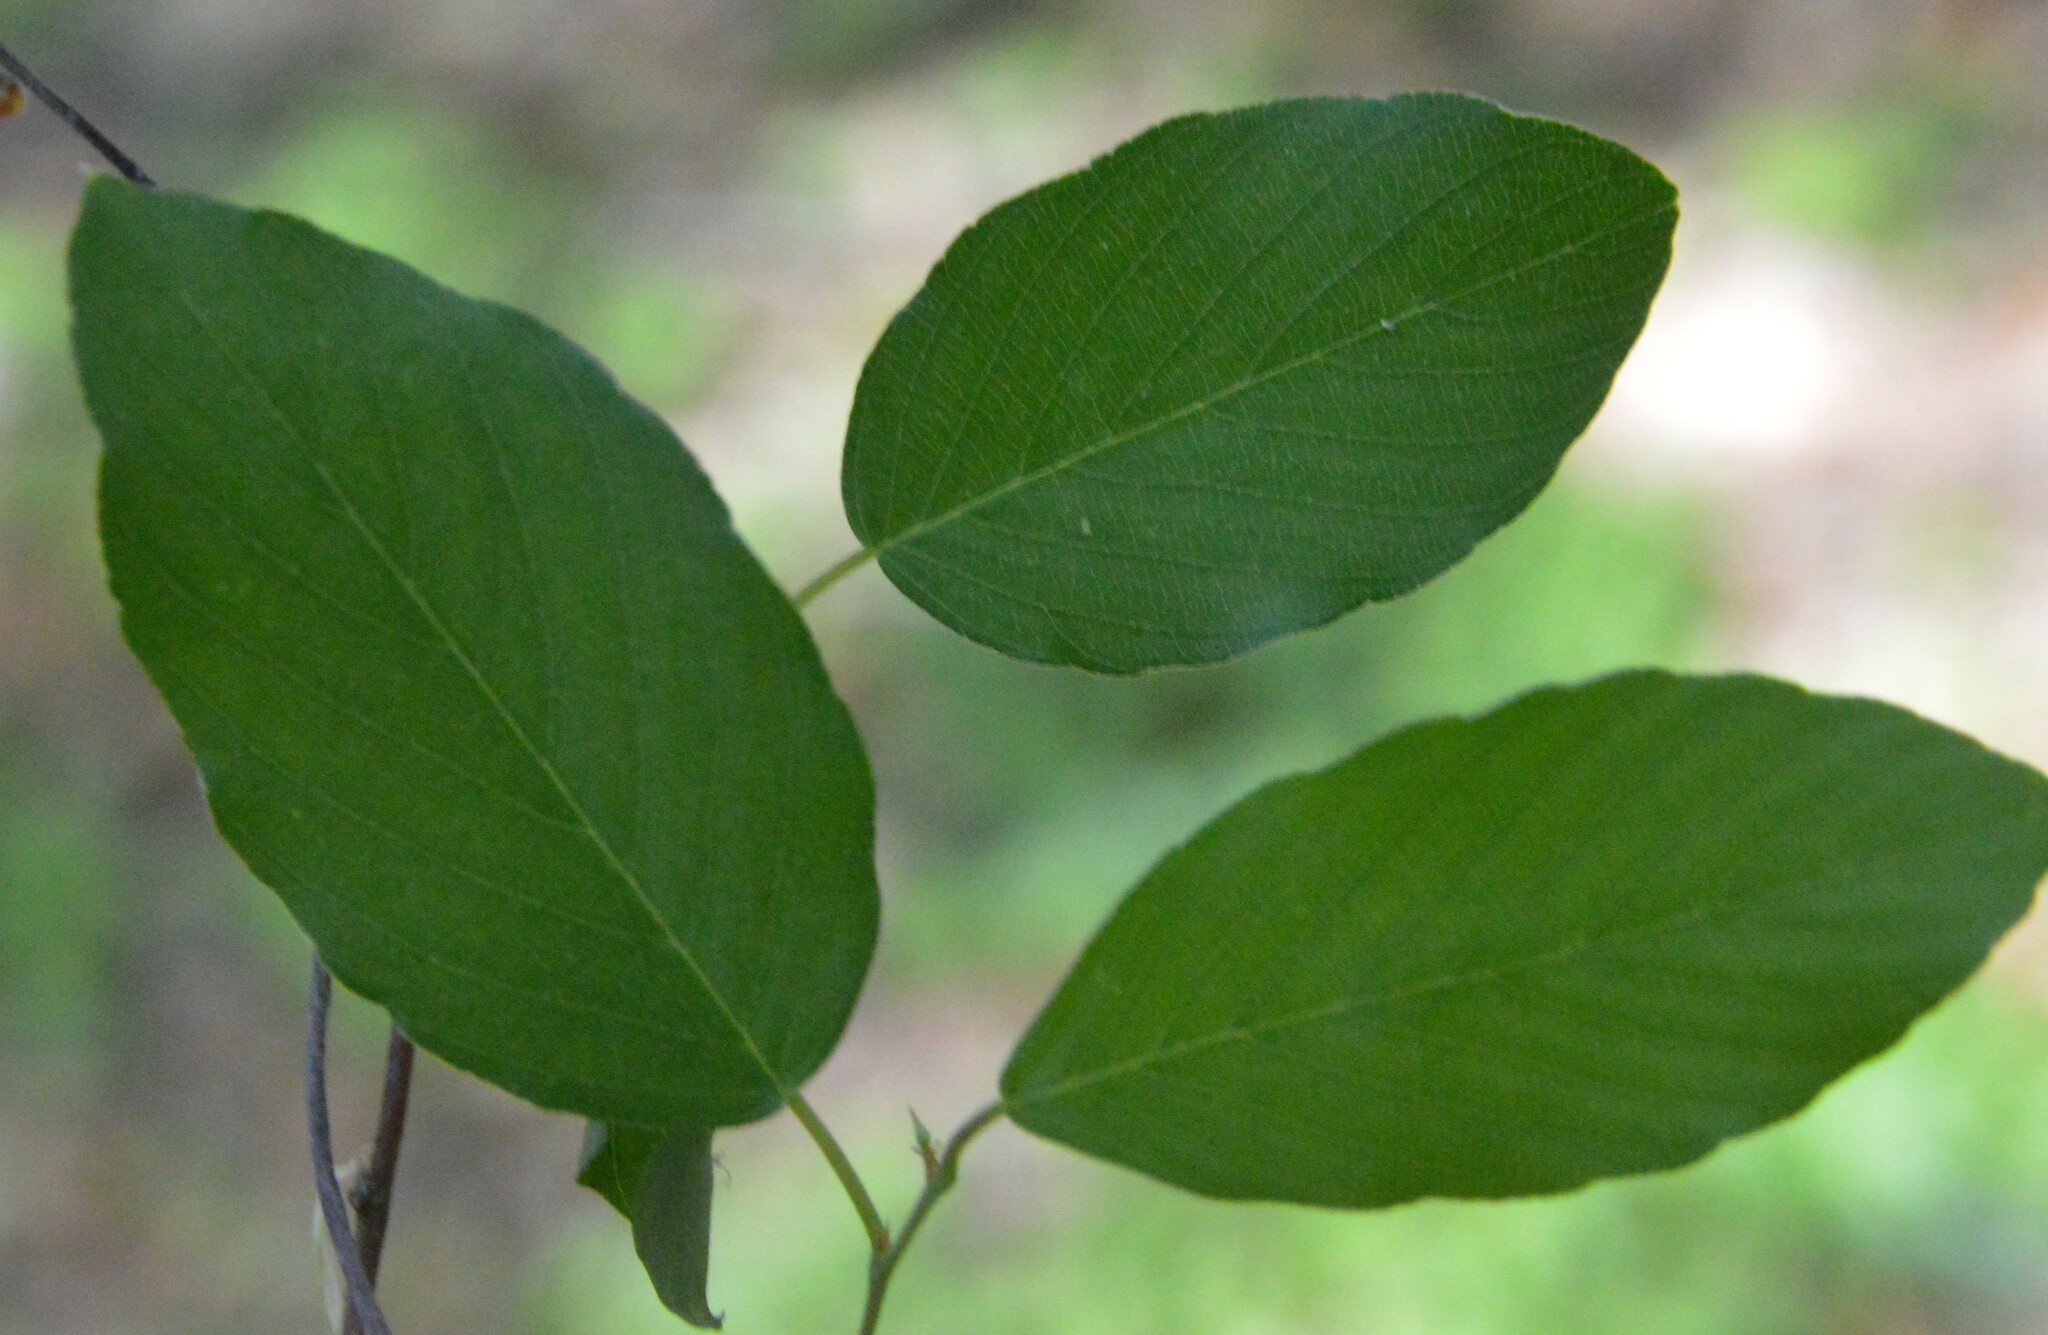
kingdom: Plantae
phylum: Tracheophyta
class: Magnoliopsida
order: Rosales
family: Rhamnaceae
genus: Berchemia
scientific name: Berchemia scandens
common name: Supplejack
